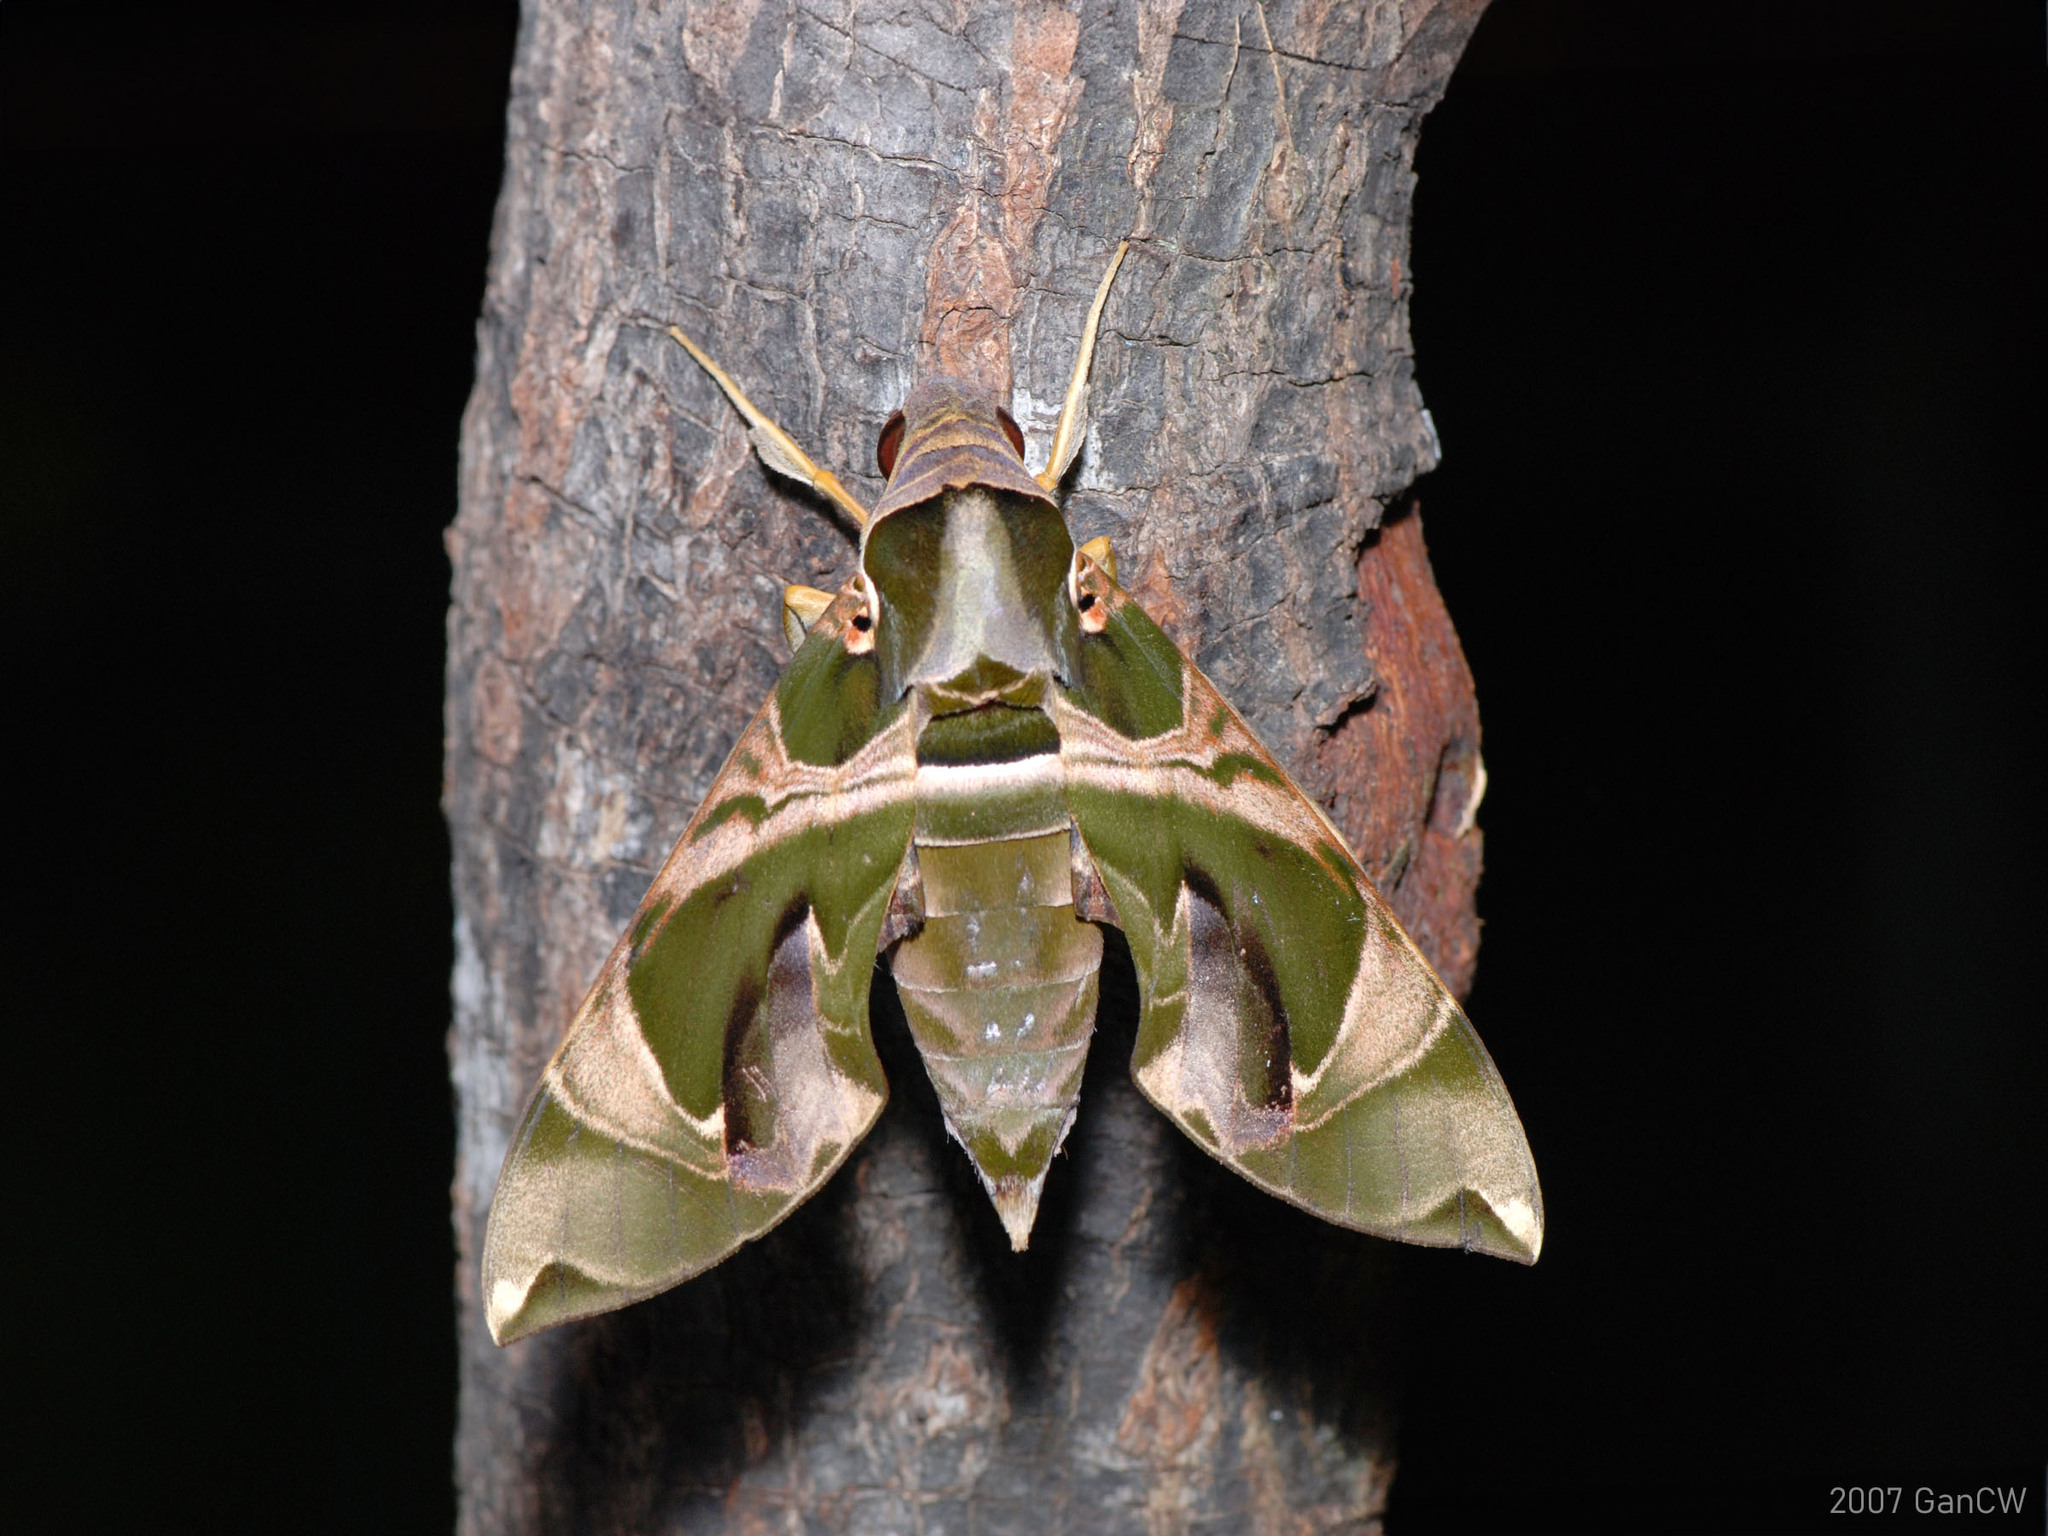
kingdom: Animalia
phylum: Arthropoda
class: Insecta
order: Lepidoptera
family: Sphingidae
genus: Daphnis
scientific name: Daphnis hypothous
